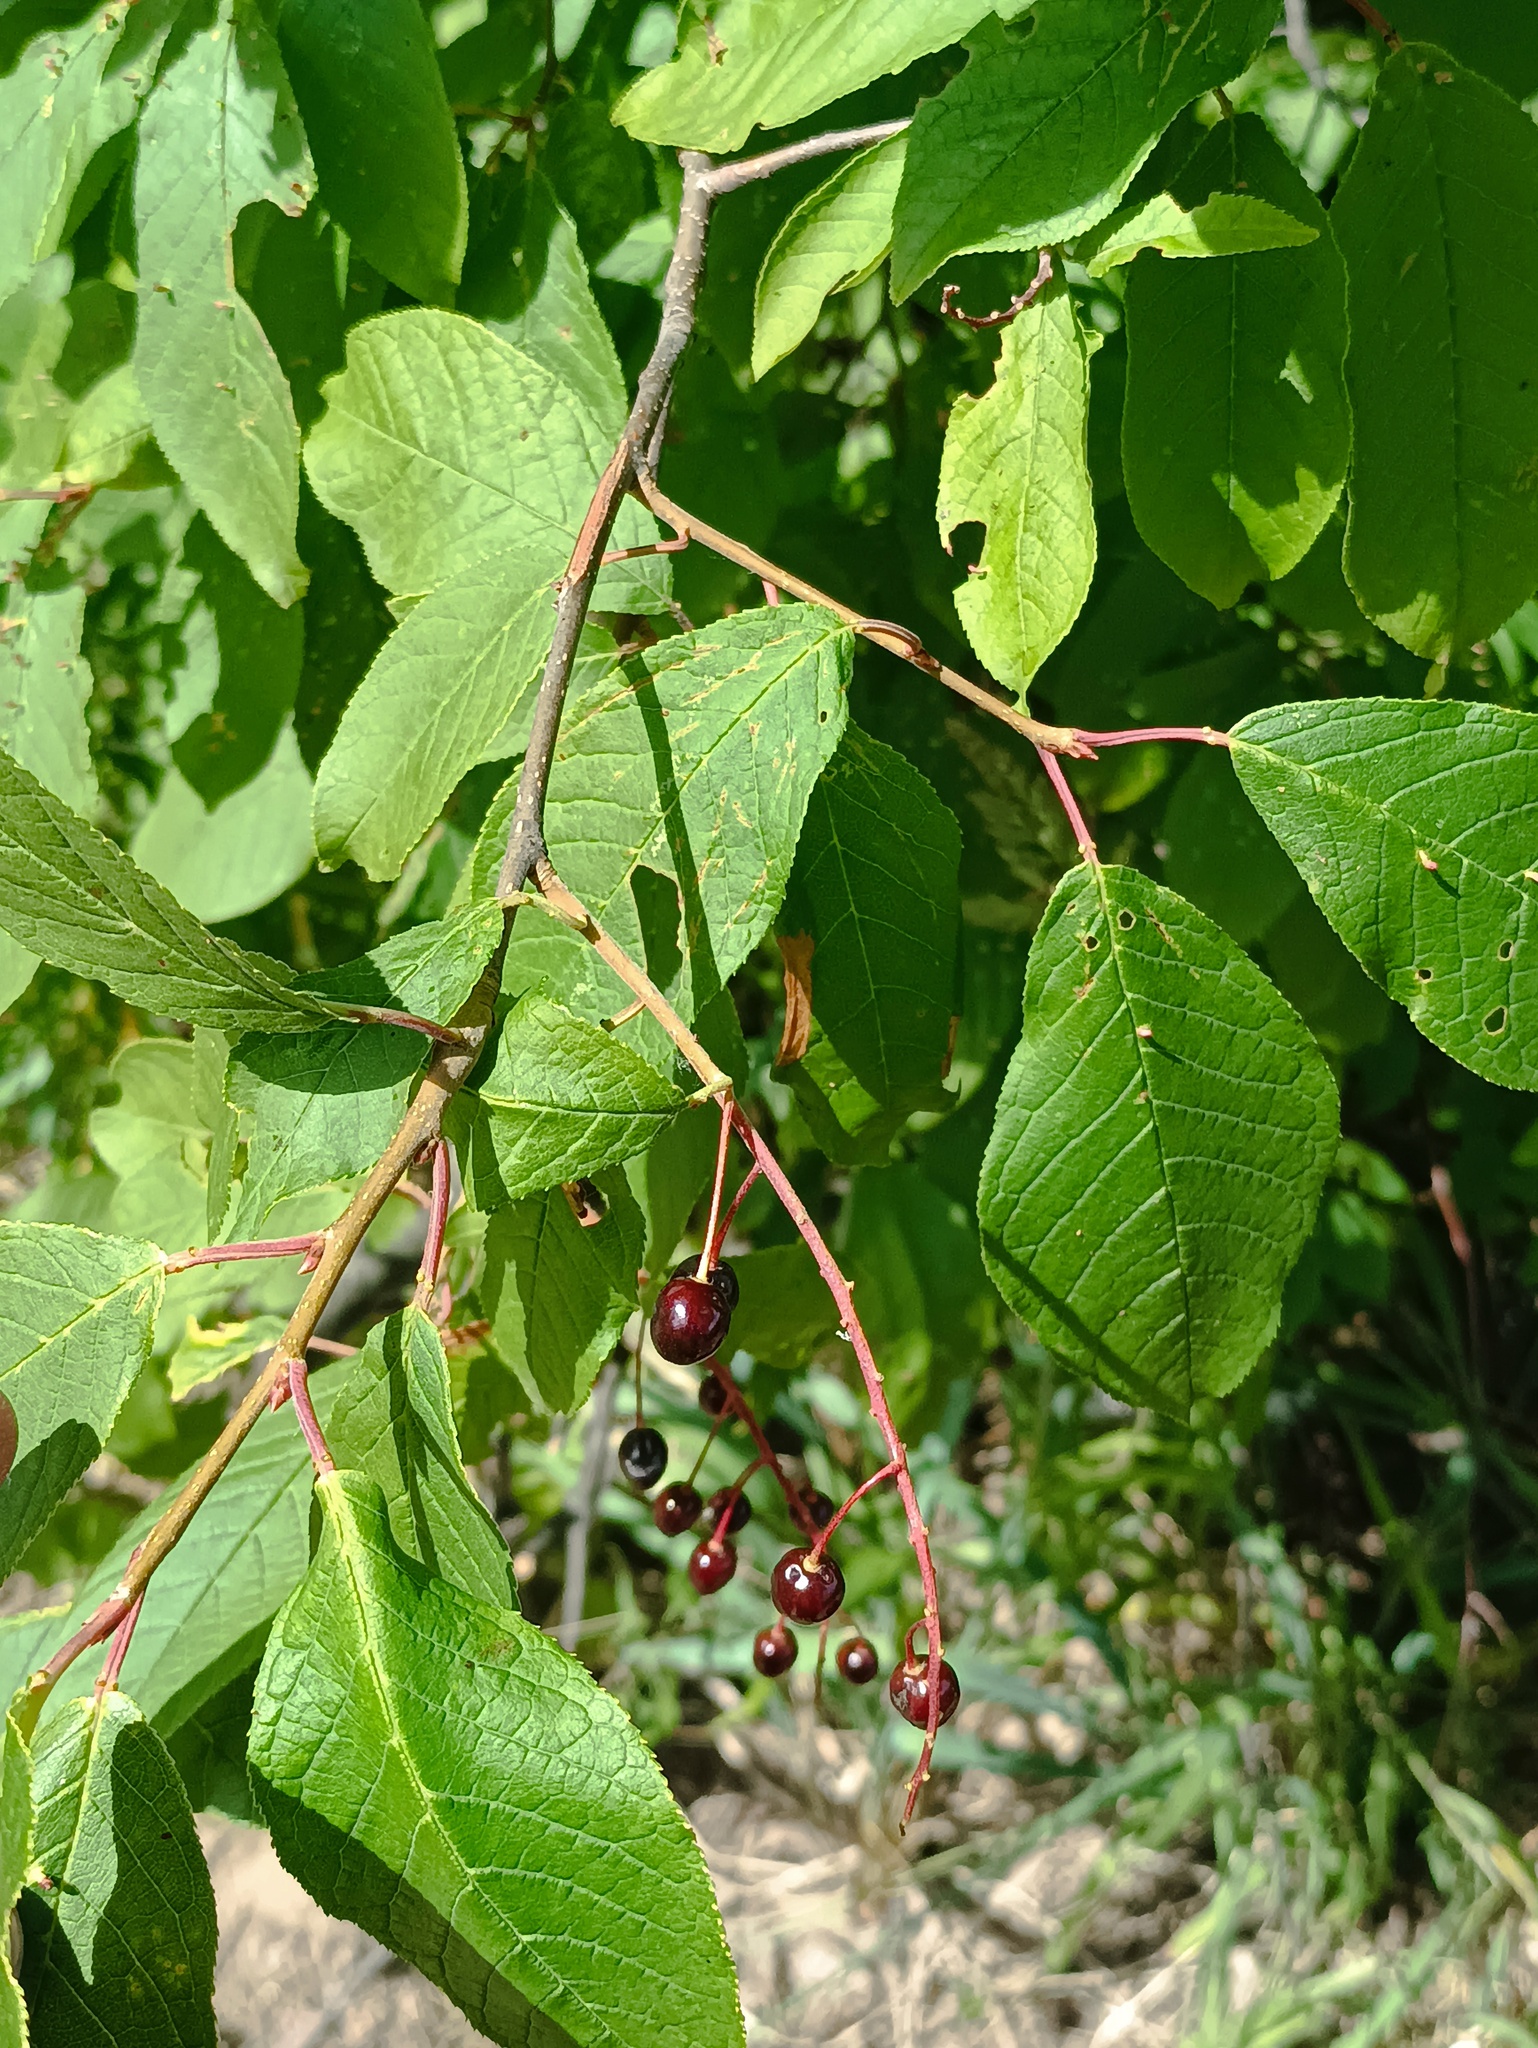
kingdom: Plantae
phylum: Tracheophyta
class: Magnoliopsida
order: Rosales
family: Rosaceae
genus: Prunus
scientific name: Prunus padus
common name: Bird cherry
